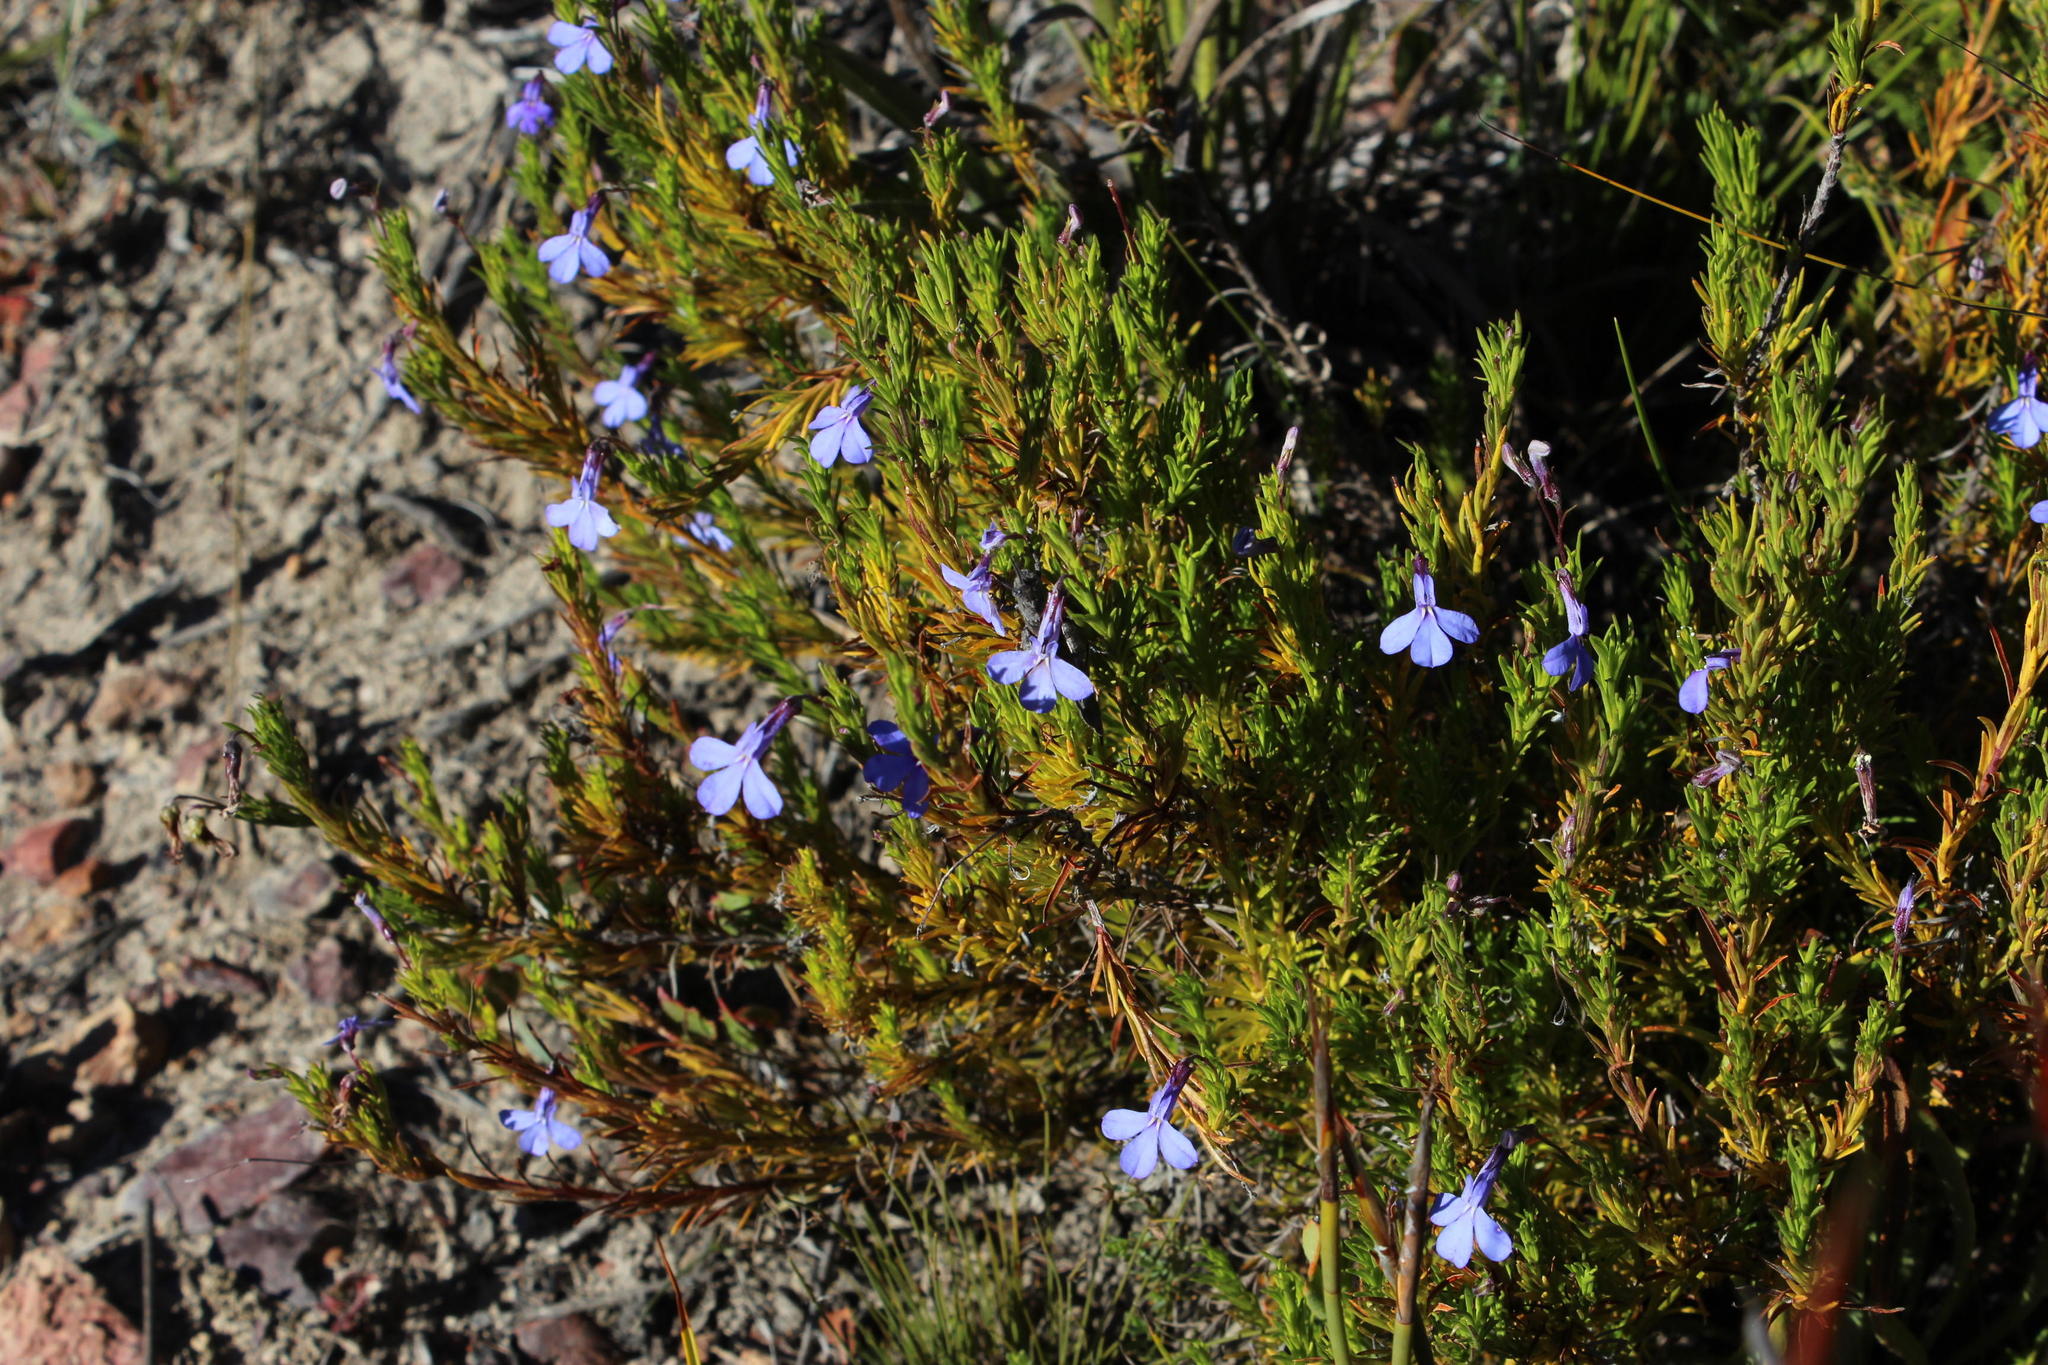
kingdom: Plantae
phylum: Tracheophyta
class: Magnoliopsida
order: Asterales
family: Campanulaceae
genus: Lobelia
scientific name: Lobelia pinifolia
